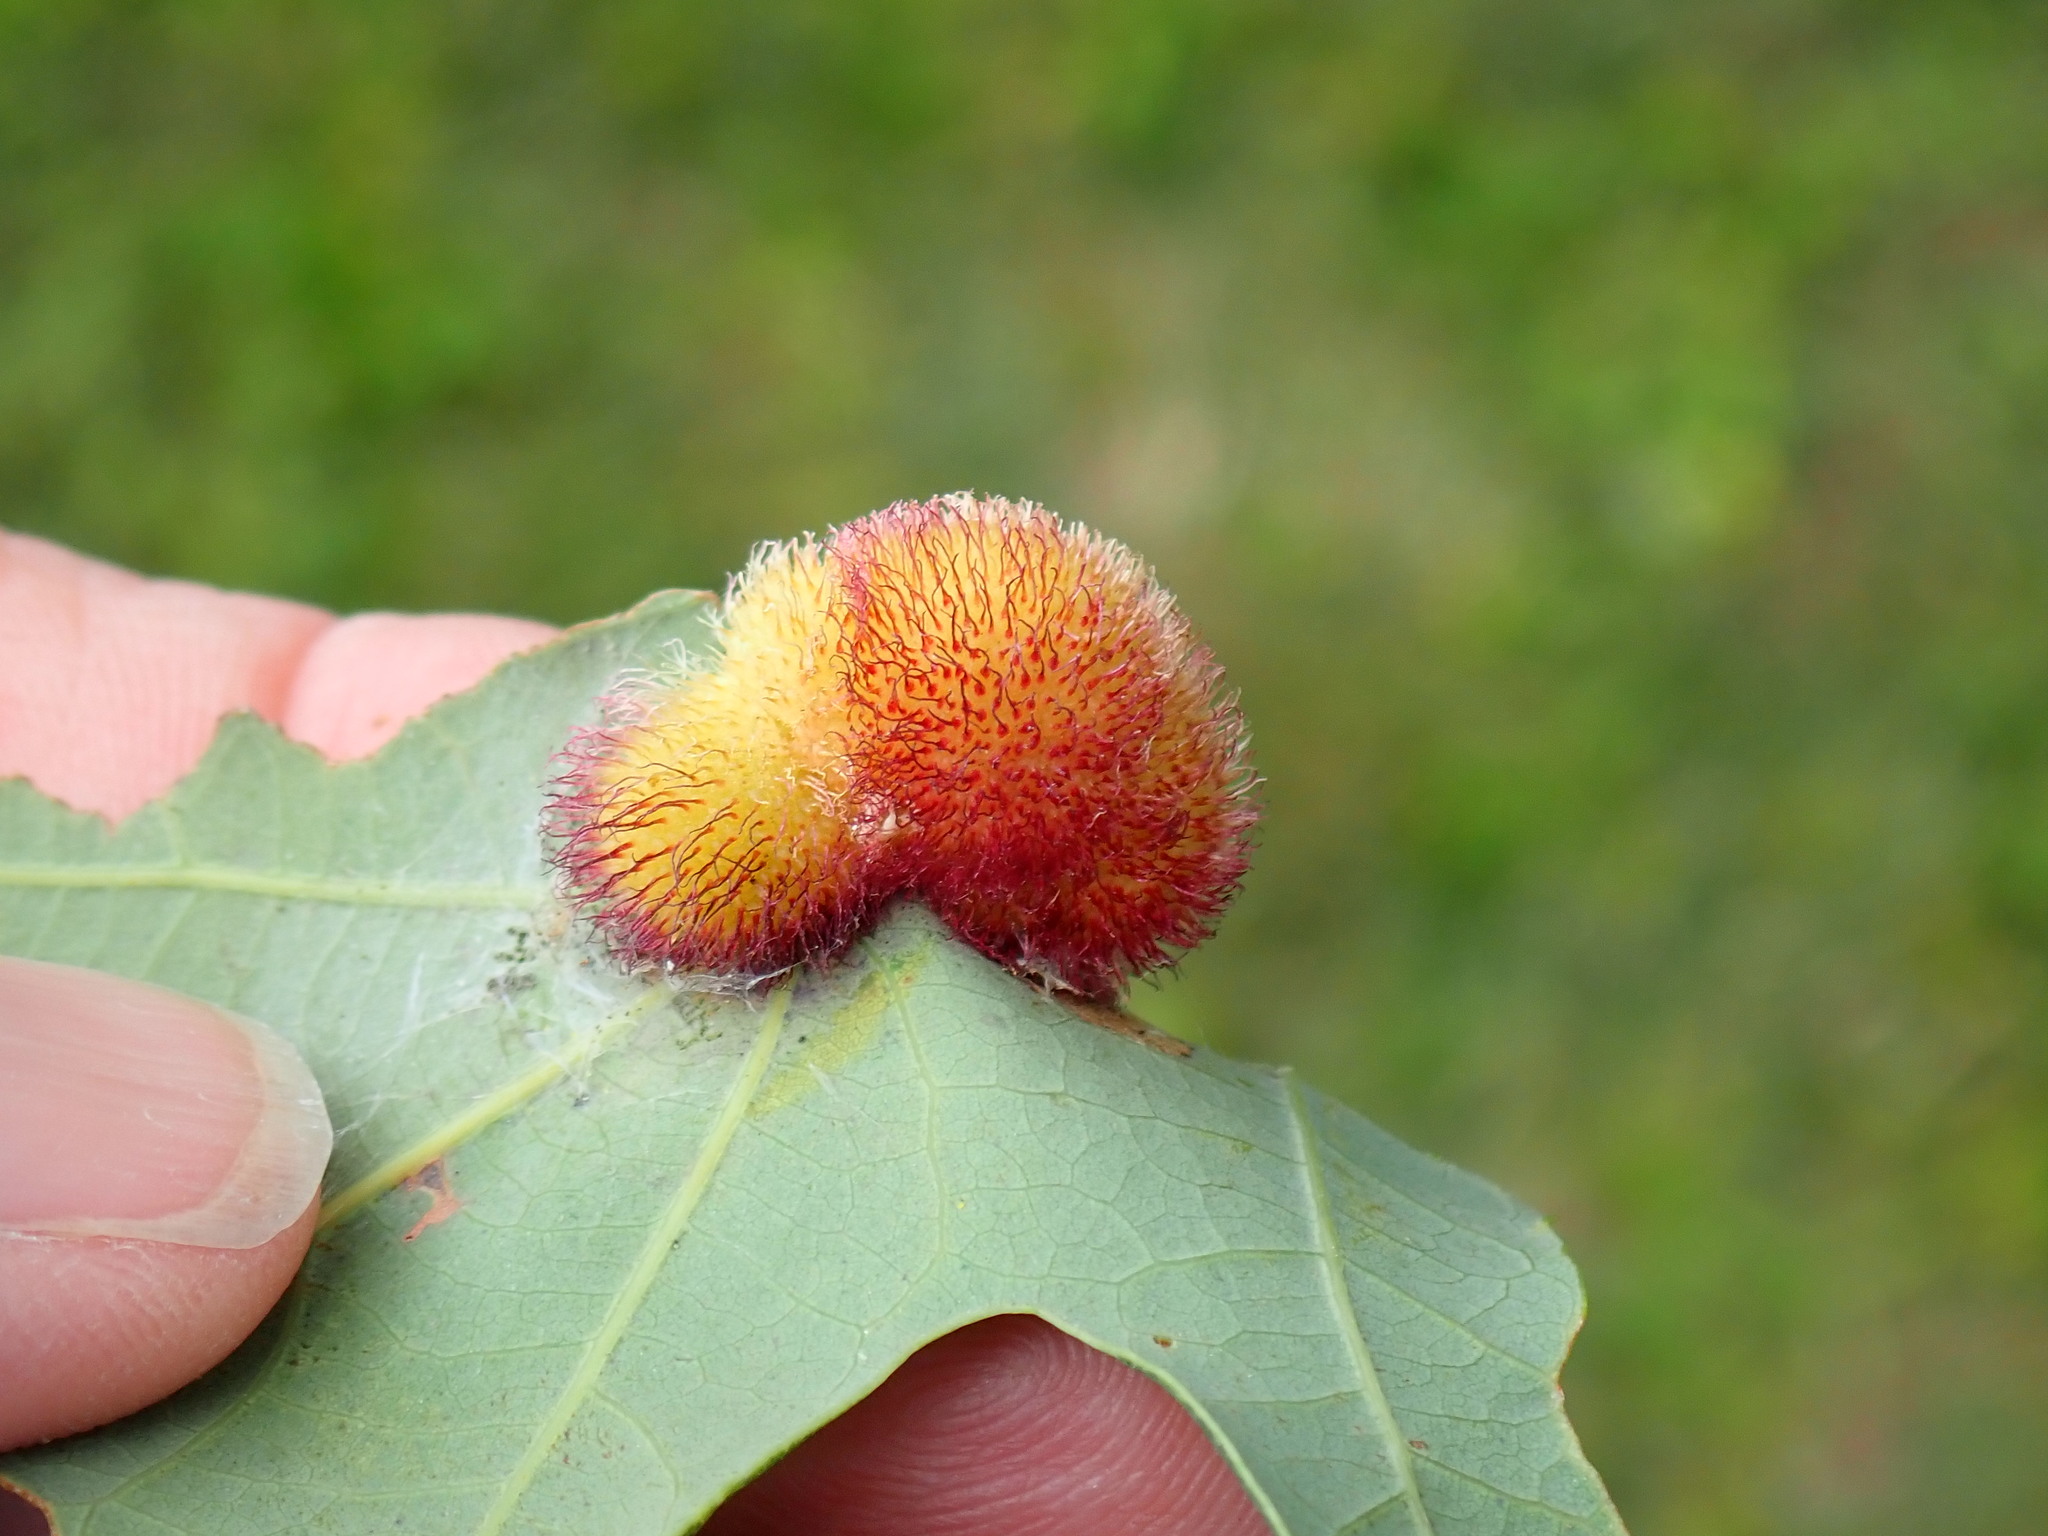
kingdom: Animalia
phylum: Arthropoda
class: Insecta
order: Hymenoptera
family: Cynipidae
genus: Acraspis
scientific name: Acraspis erinacei
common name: Hedgehog gall wasp
